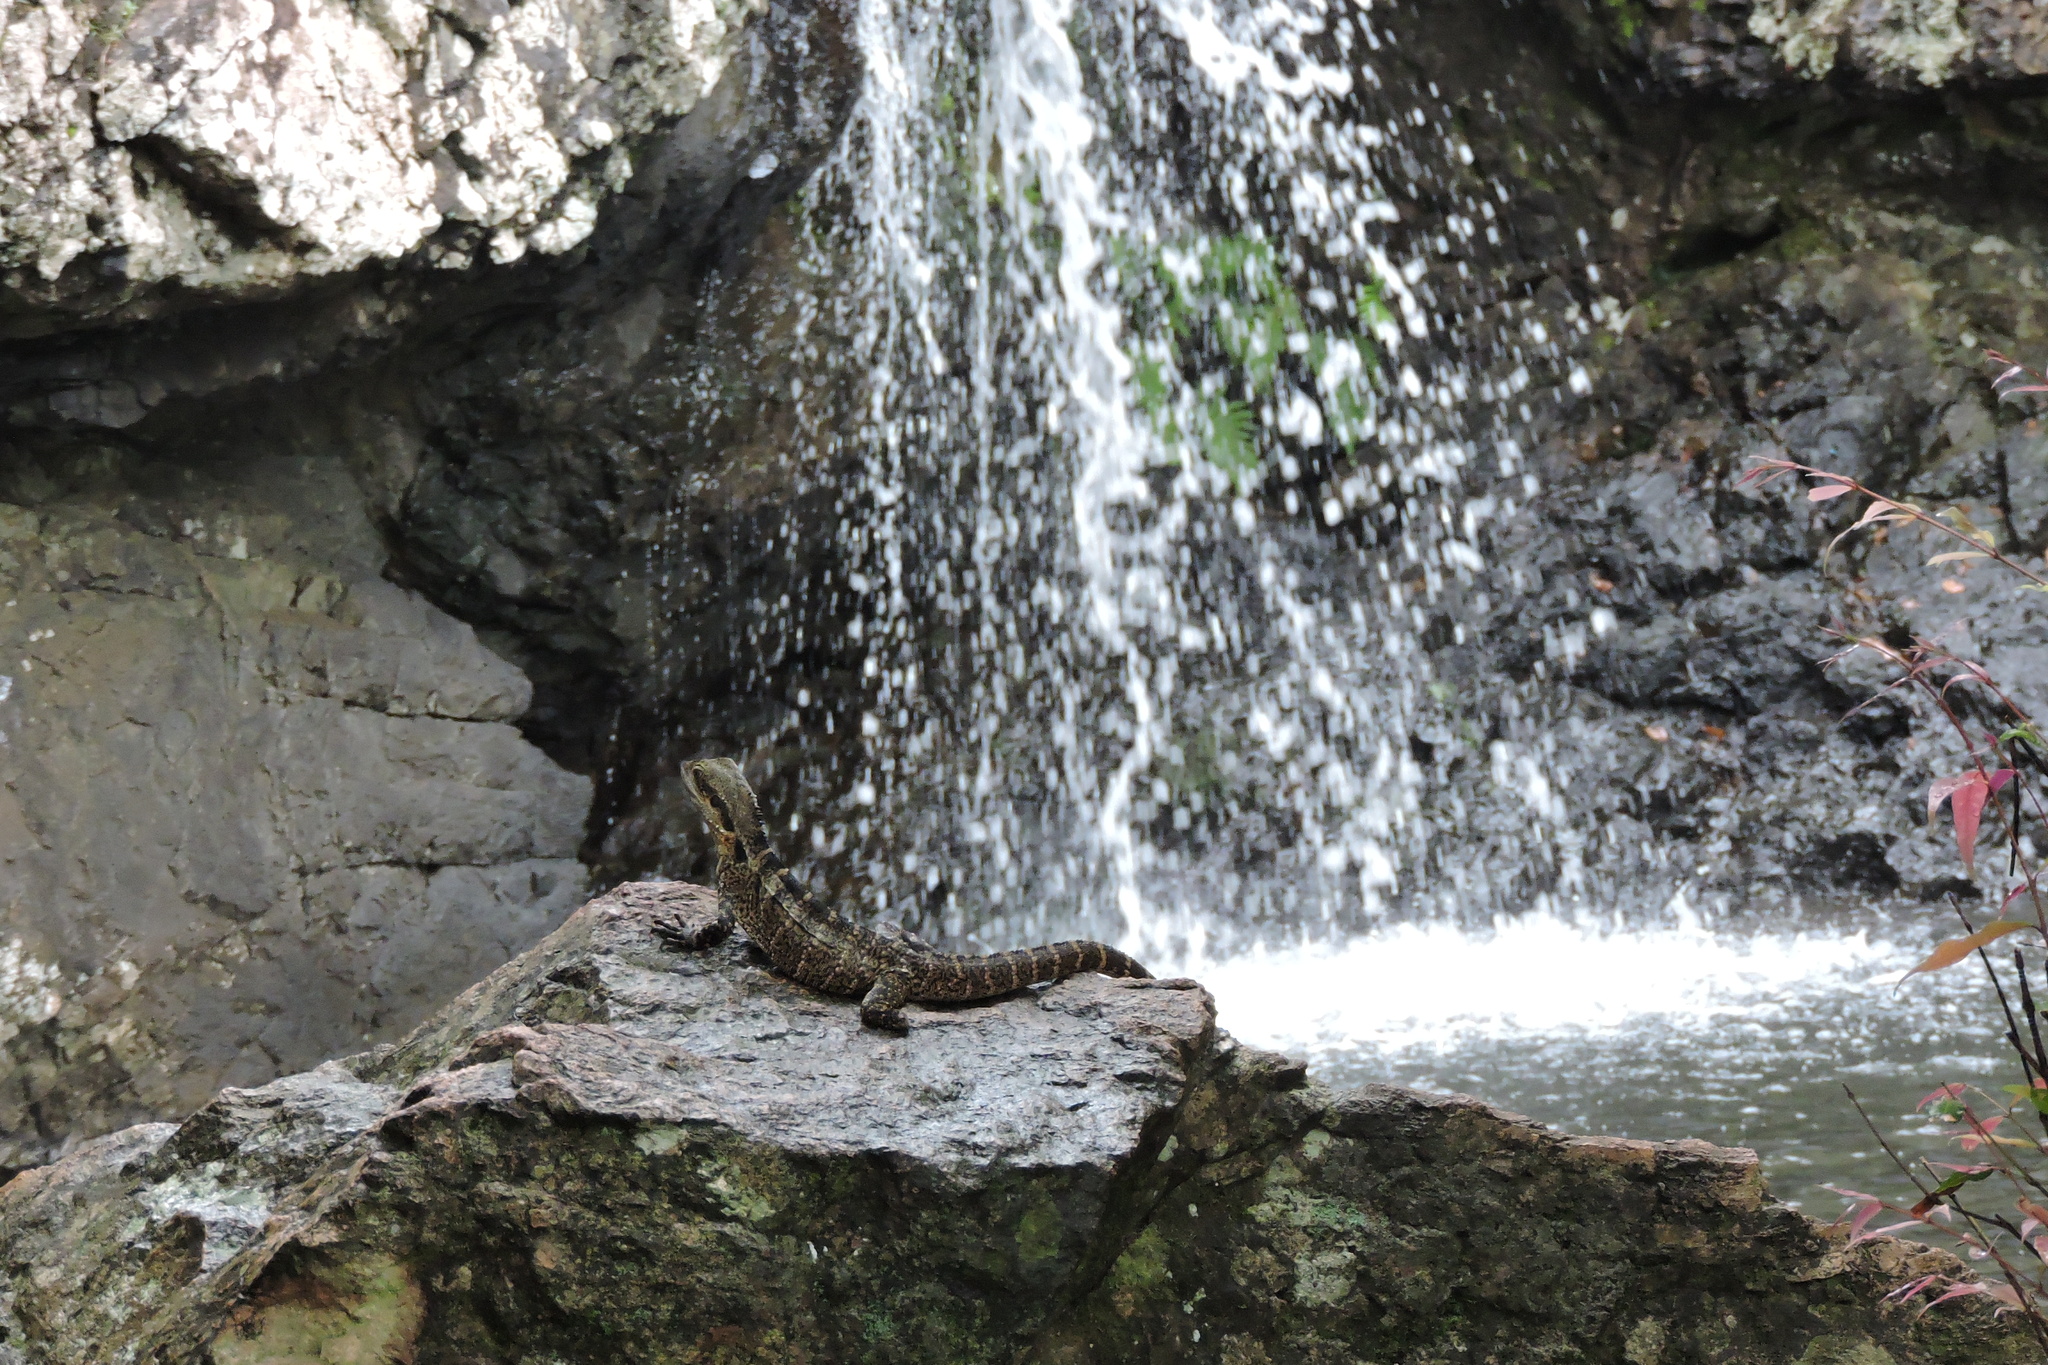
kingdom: Animalia
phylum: Chordata
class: Squamata
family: Agamidae
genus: Intellagama
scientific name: Intellagama lesueurii
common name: Eastern water dragon
